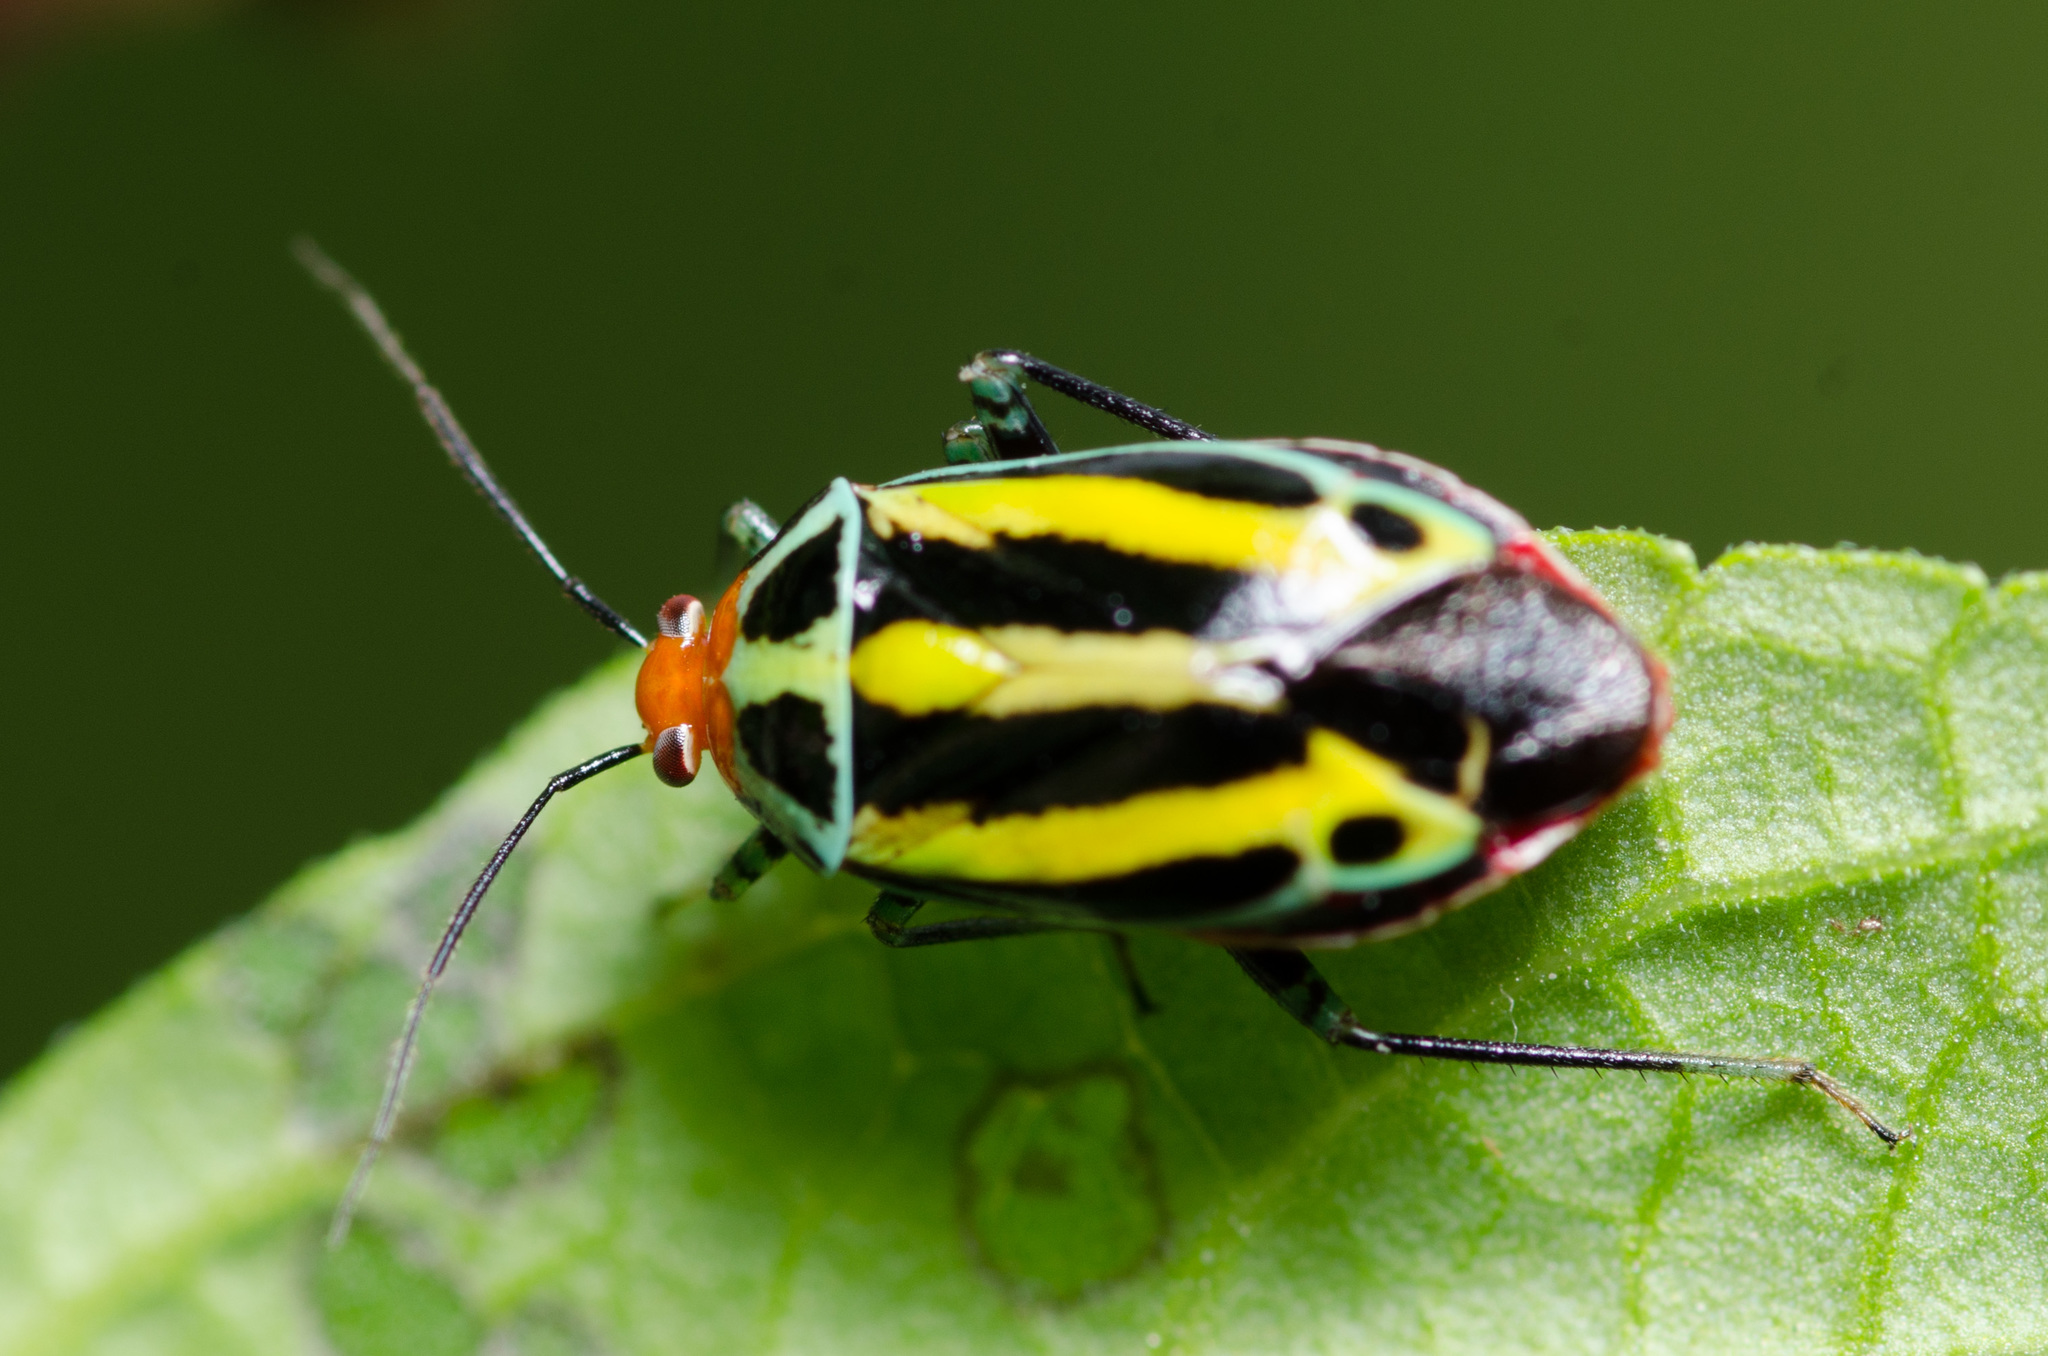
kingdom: Animalia
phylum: Arthropoda
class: Insecta
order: Hemiptera
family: Miridae
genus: Poecilocapsus
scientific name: Poecilocapsus lineatus
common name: Four-lined plant bug
